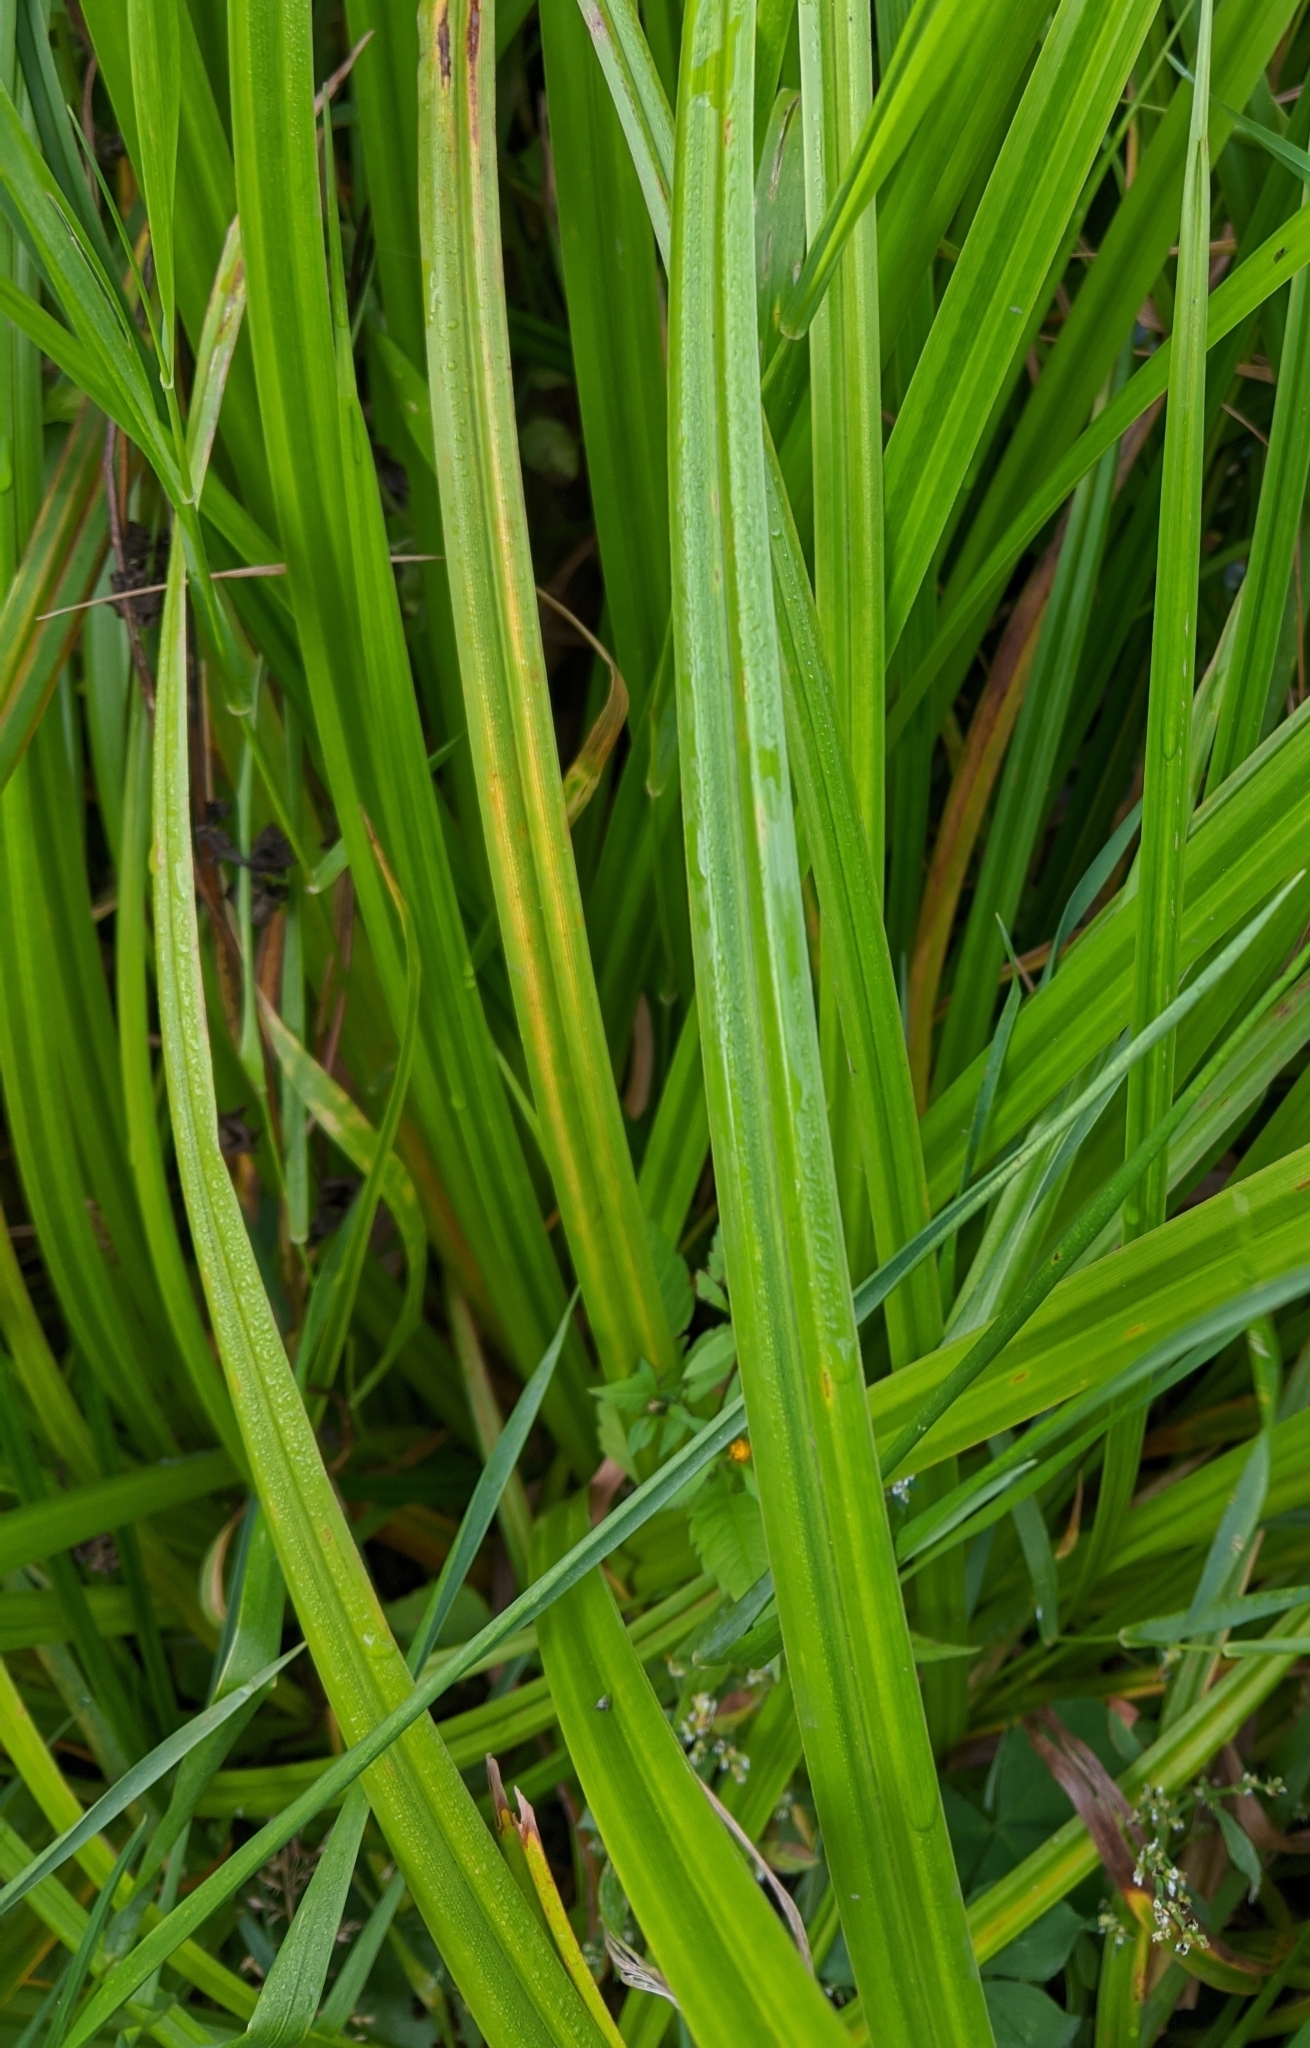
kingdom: Plantae
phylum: Tracheophyta
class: Liliopsida
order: Poales
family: Cyperaceae
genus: Scirpus
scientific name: Scirpus sylvaticus
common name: Wood club-rush
